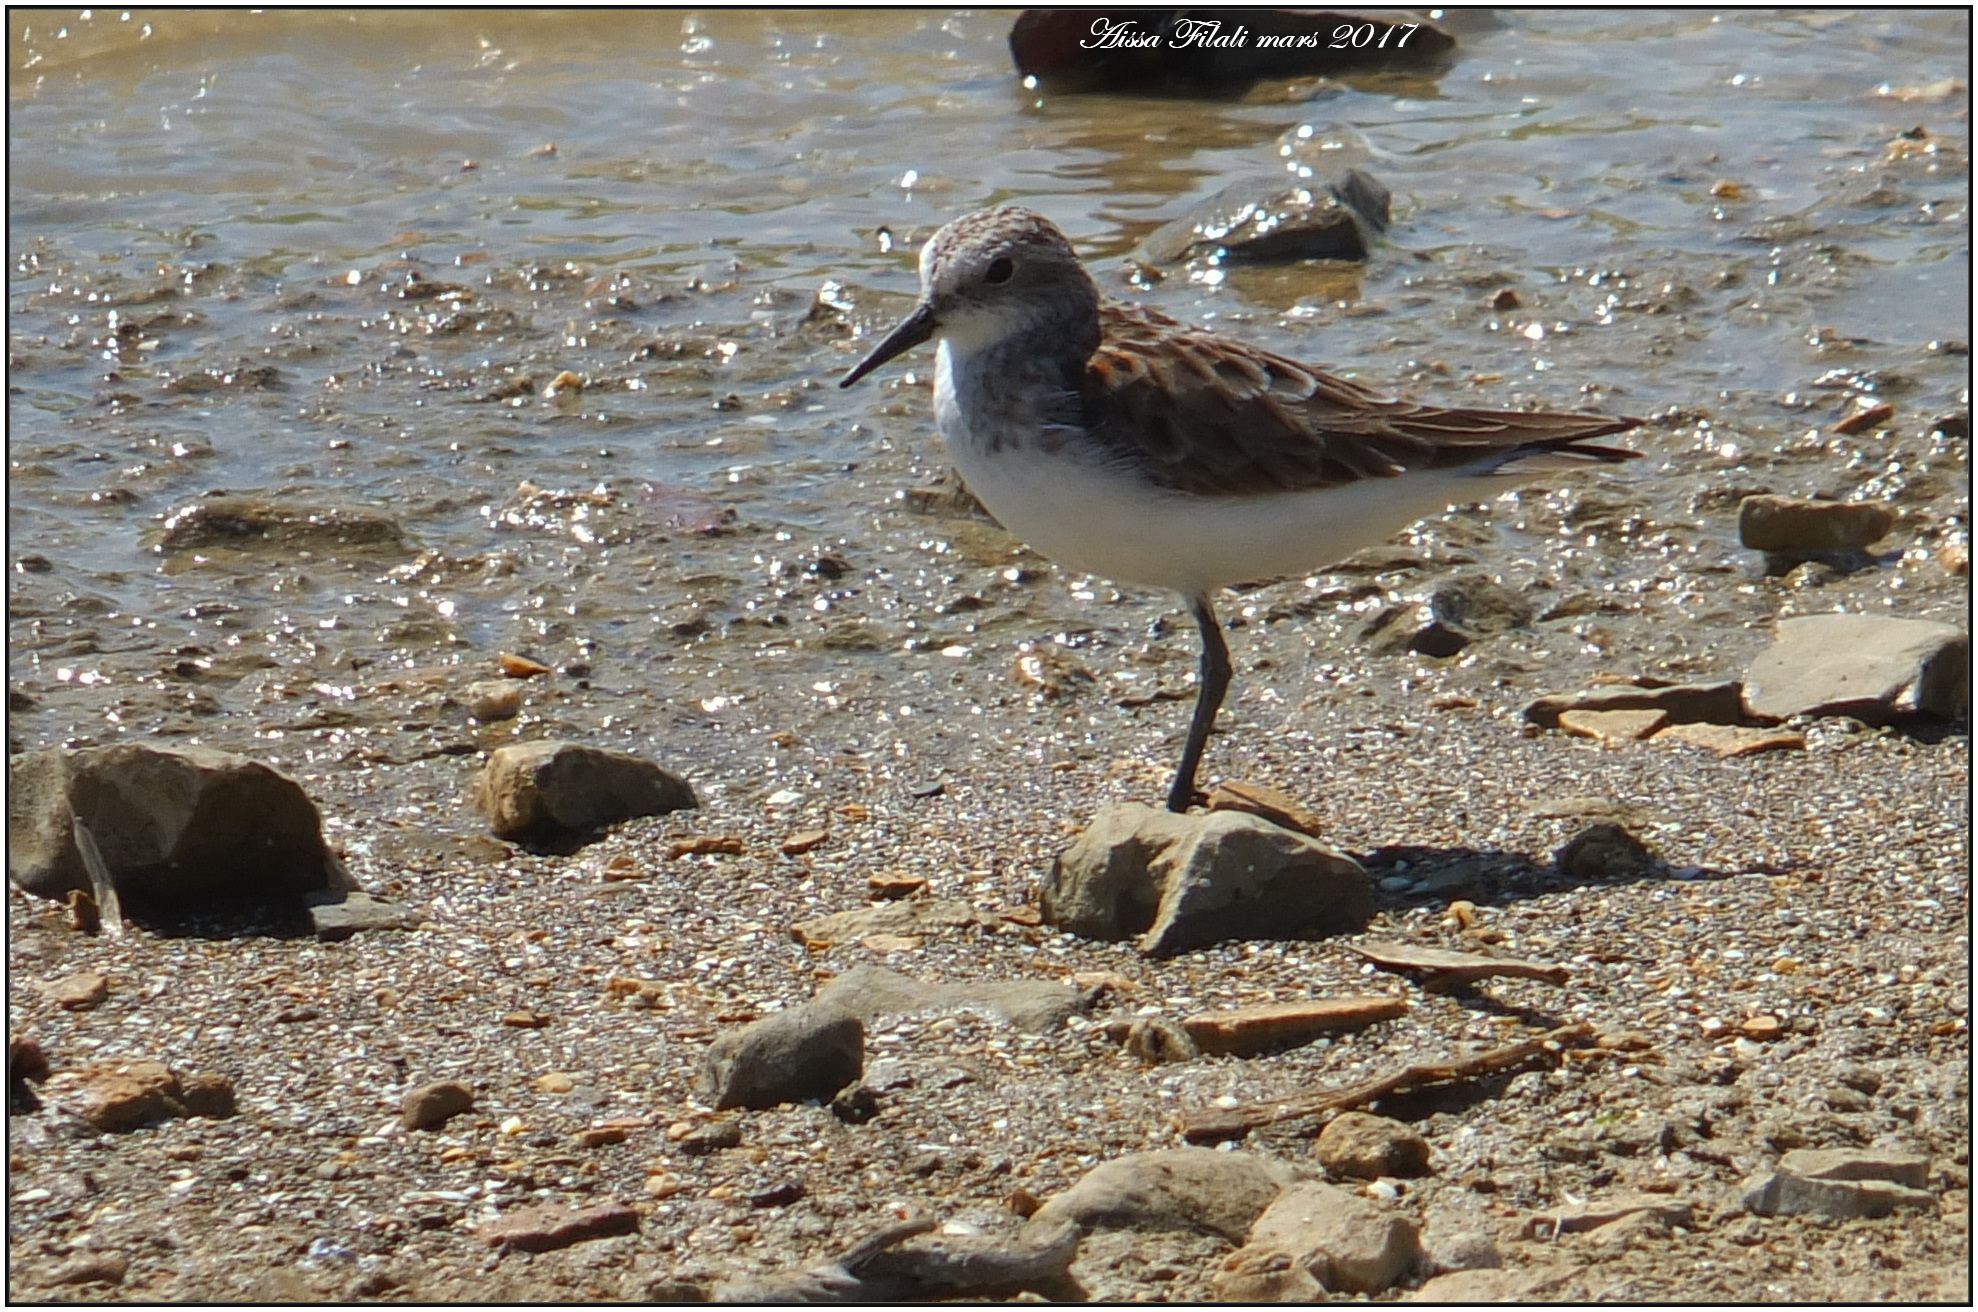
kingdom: Animalia
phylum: Chordata
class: Aves
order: Charadriiformes
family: Scolopacidae
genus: Calidris
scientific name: Calidris minuta
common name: Little stint
